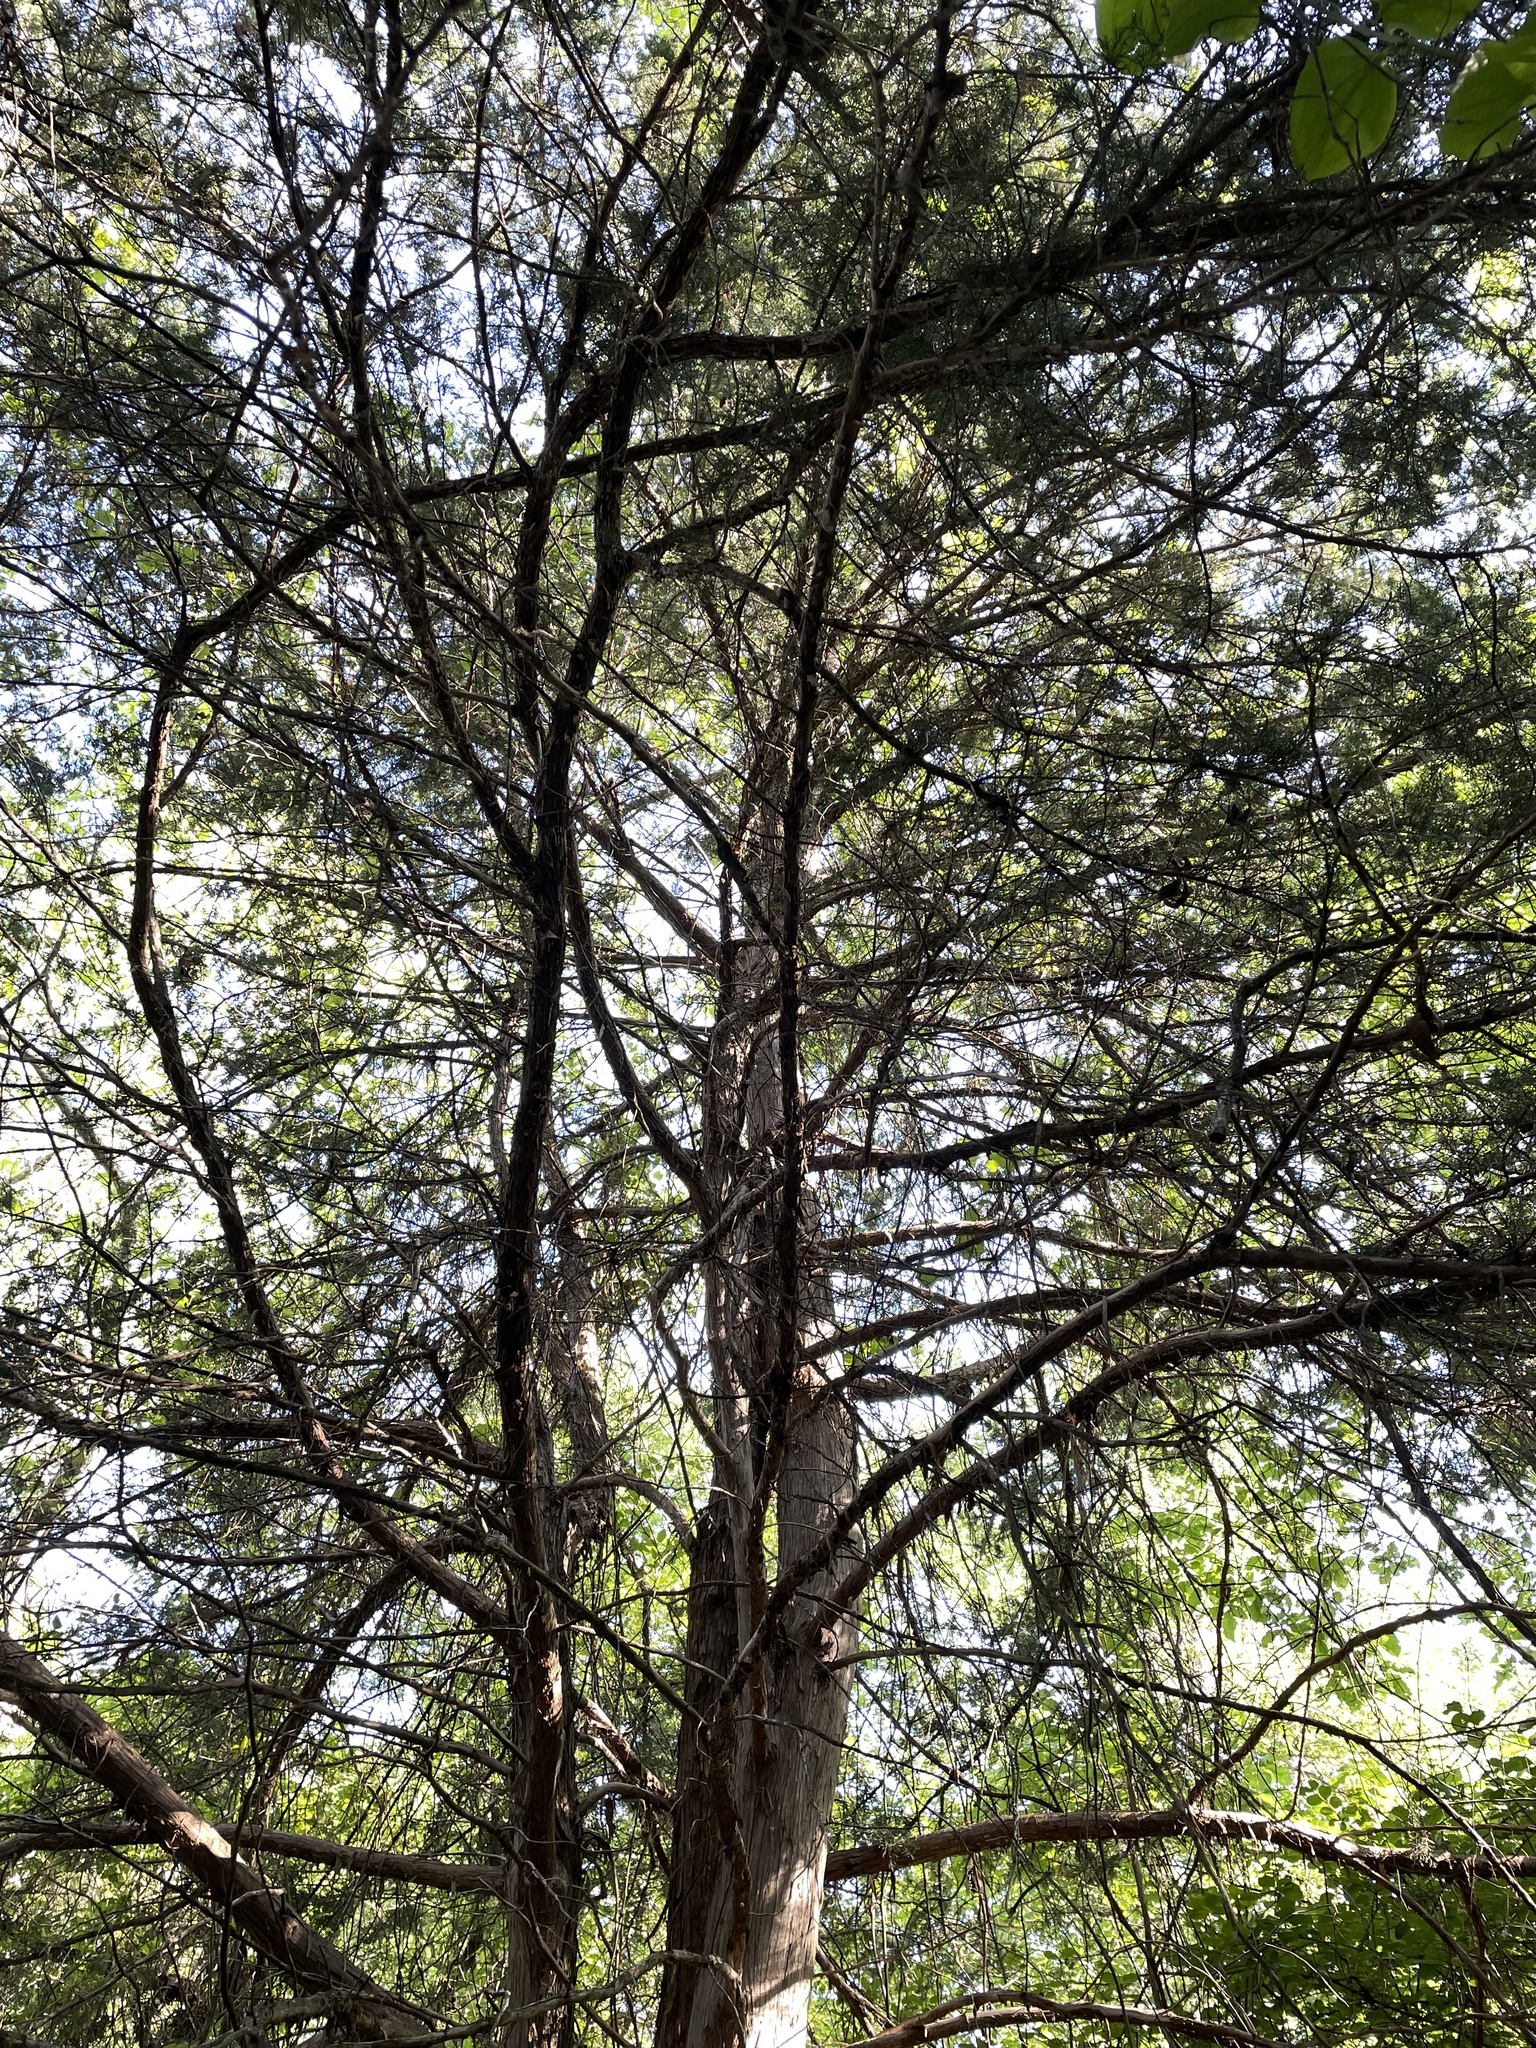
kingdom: Plantae
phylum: Tracheophyta
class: Pinopsida
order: Pinales
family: Cupressaceae
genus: Juniperus
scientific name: Juniperus virginiana
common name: Red juniper
